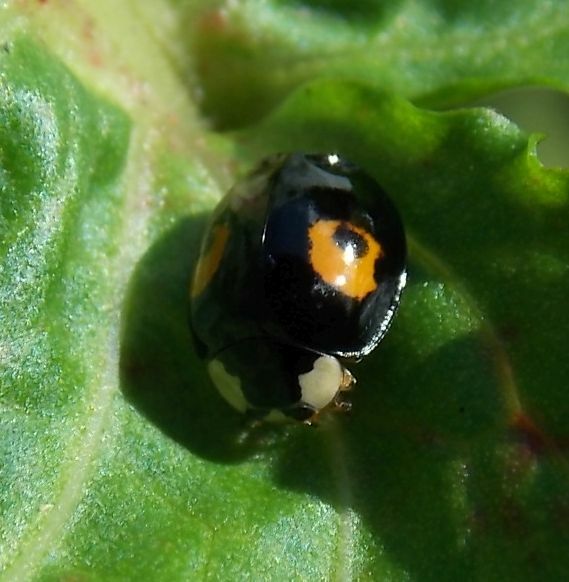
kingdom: Animalia
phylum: Arthropoda
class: Insecta
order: Coleoptera
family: Coccinellidae
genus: Harmonia
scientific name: Harmonia axyridis
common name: Harlequin ladybird
